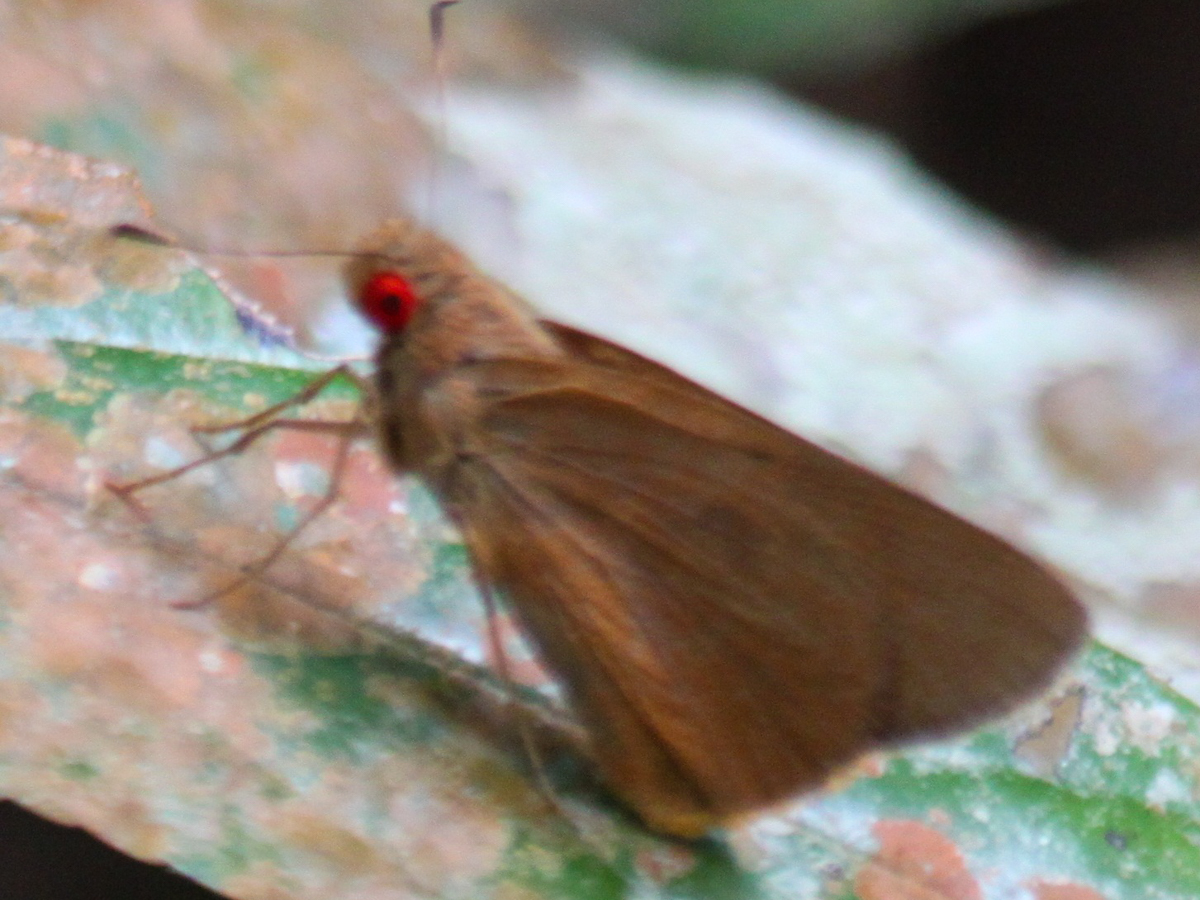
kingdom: Animalia
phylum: Arthropoda
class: Insecta
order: Lepidoptera
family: Hesperiidae
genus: Matapa
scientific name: Matapa druna
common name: Grey-brand redeye
